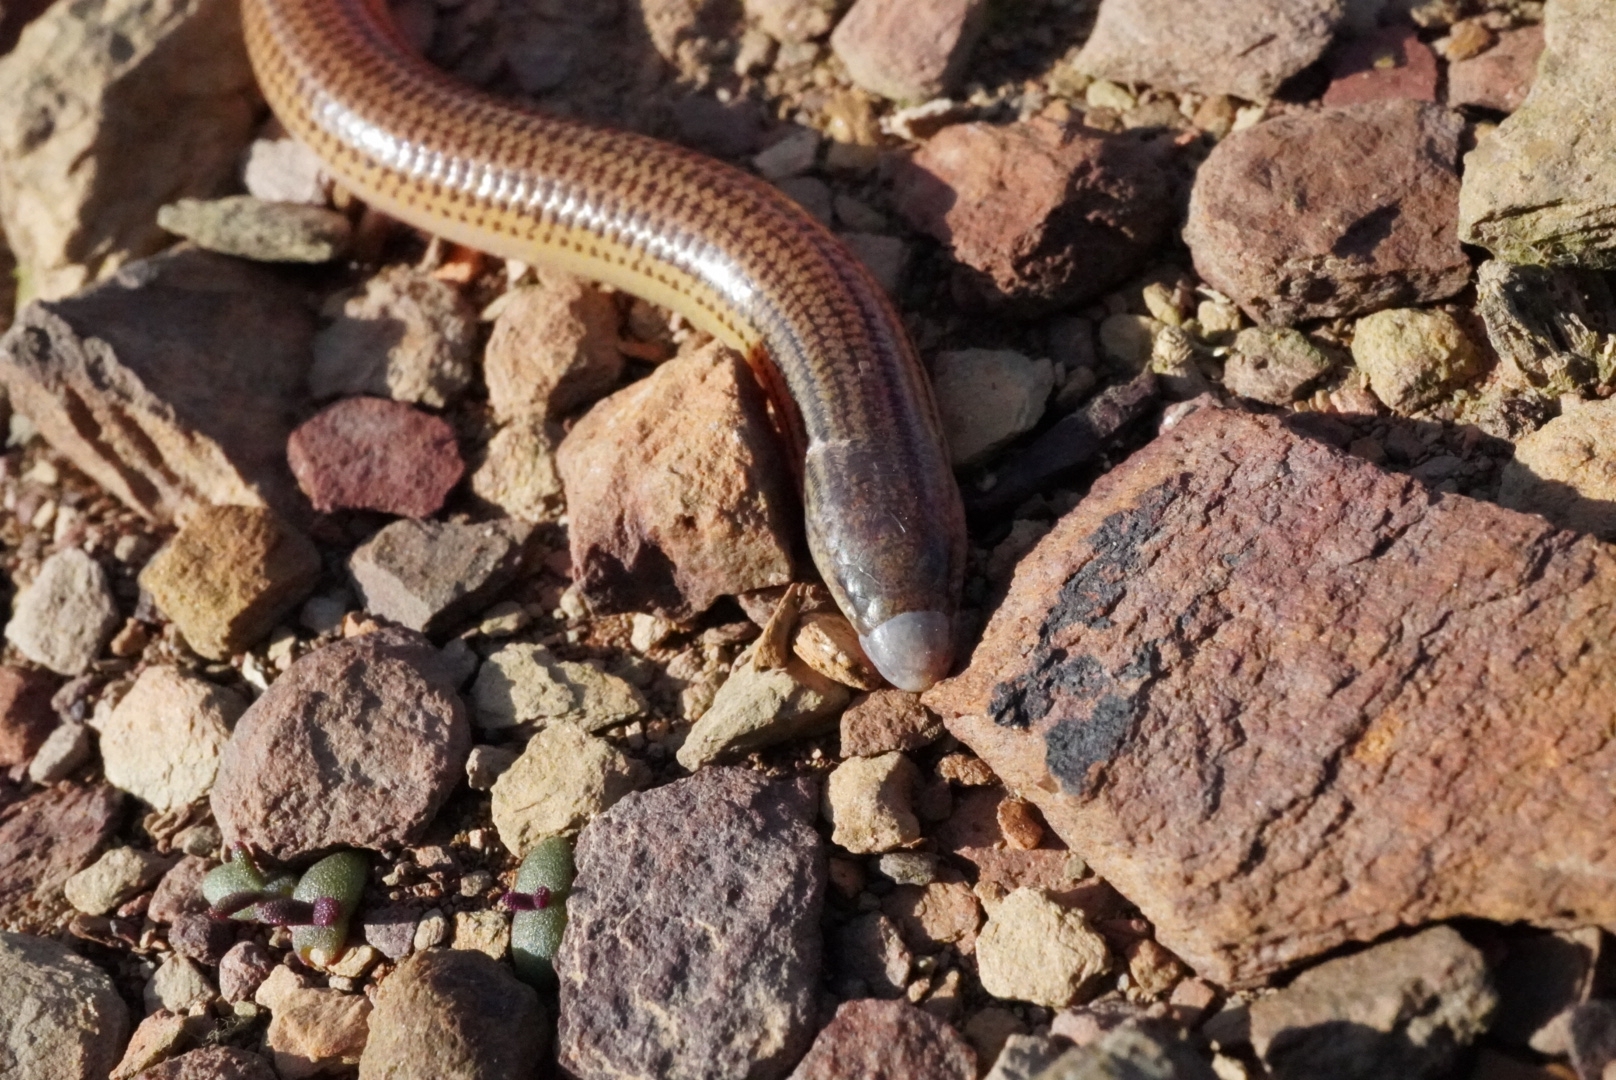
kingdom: Animalia
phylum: Chordata
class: Squamata
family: Scincidae
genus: Acontias
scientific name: Acontias meleagris
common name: Cape legless skink
